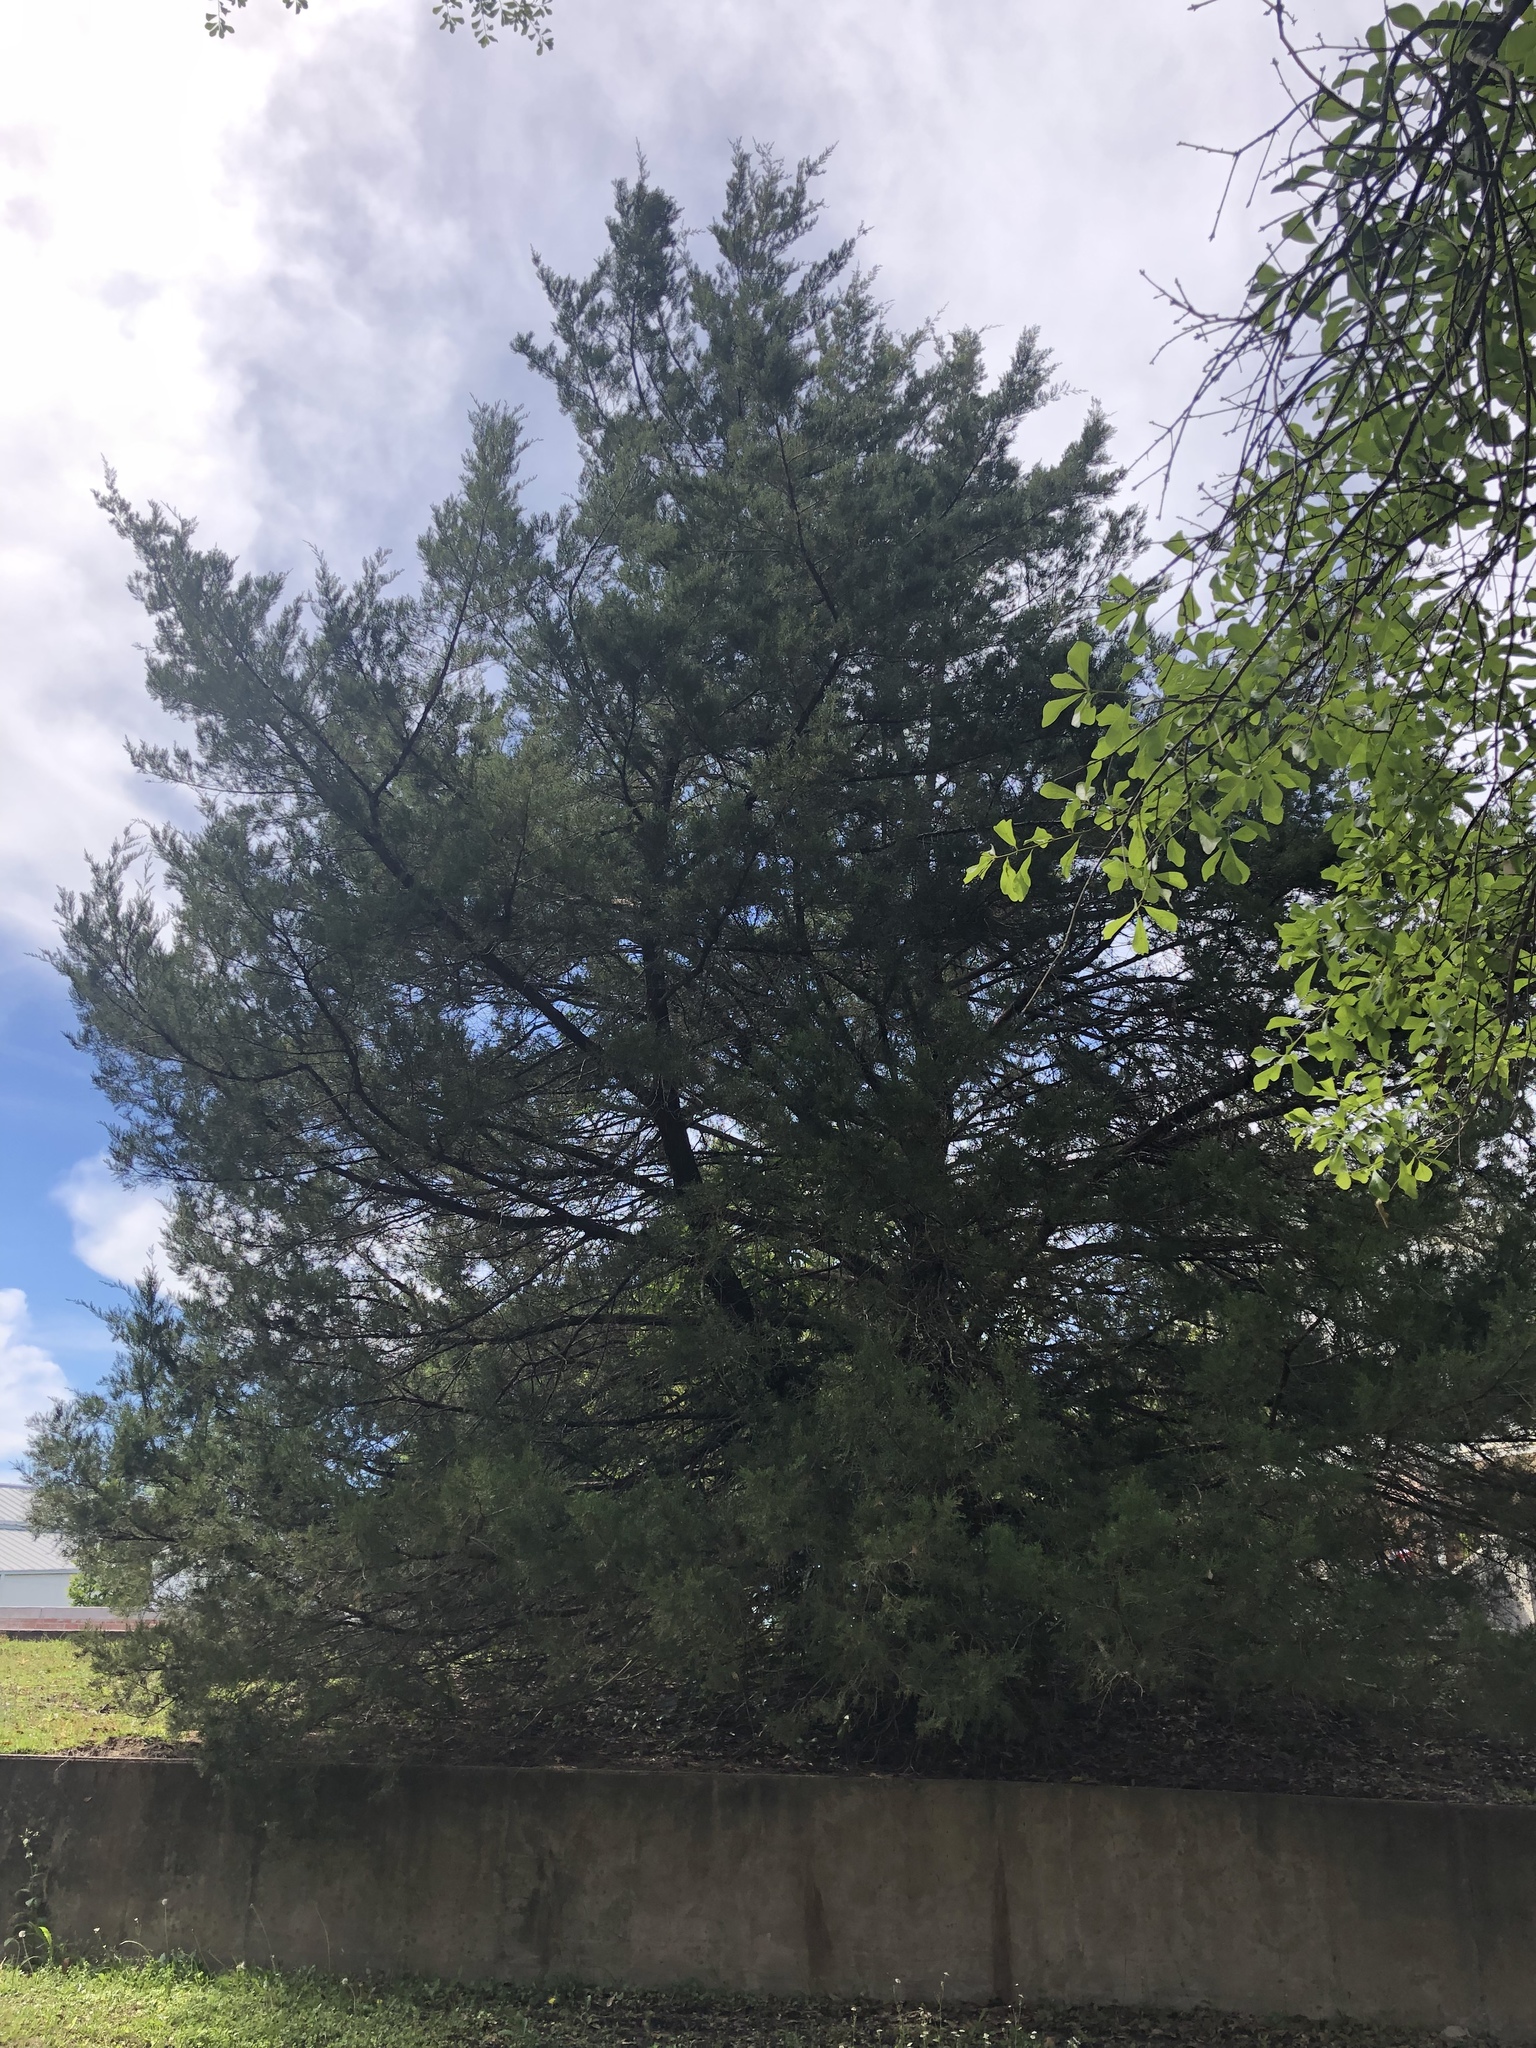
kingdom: Plantae
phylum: Tracheophyta
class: Pinopsida
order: Pinales
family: Cupressaceae
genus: Juniperus
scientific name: Juniperus virginiana
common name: Red juniper
